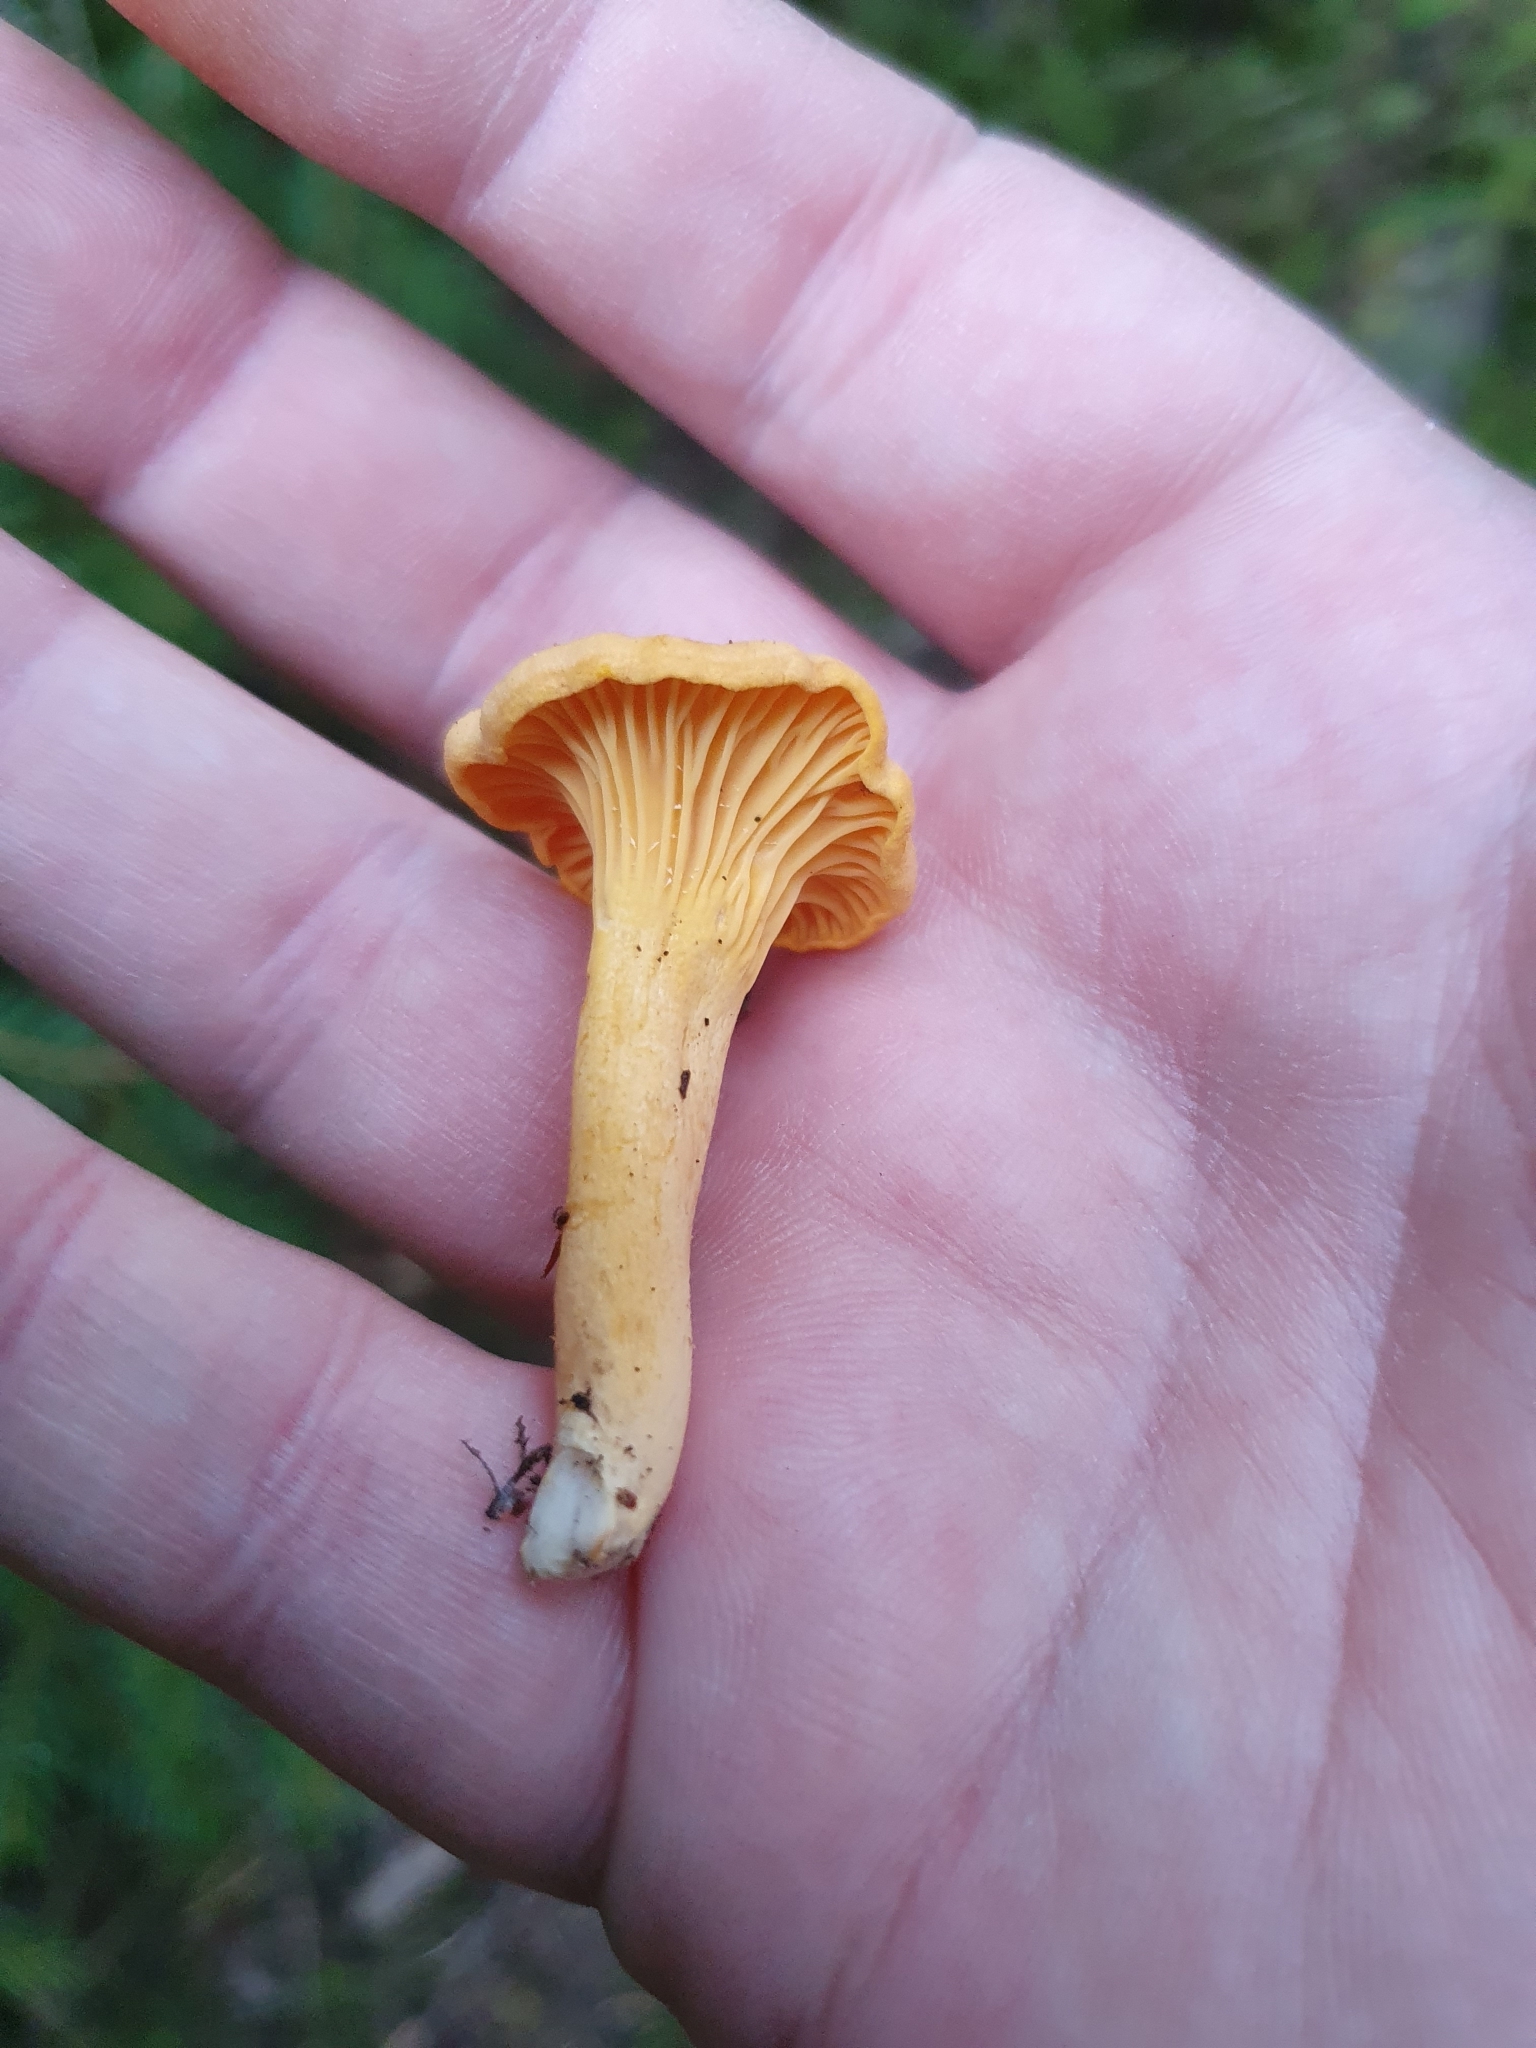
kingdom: Fungi
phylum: Basidiomycota
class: Agaricomycetes
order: Cantharellales
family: Hydnaceae
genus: Cantharellus
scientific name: Cantharellus cibarius
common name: Chanterelle
